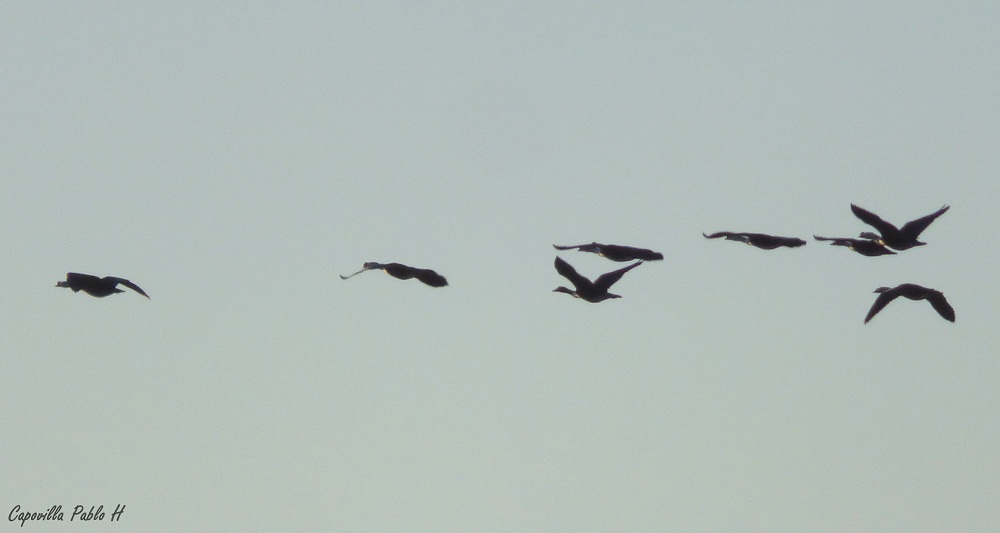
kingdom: Animalia
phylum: Chordata
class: Aves
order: Anseriformes
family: Anatidae
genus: Sarkidiornis
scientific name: Sarkidiornis sylvicola
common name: Comb duck
